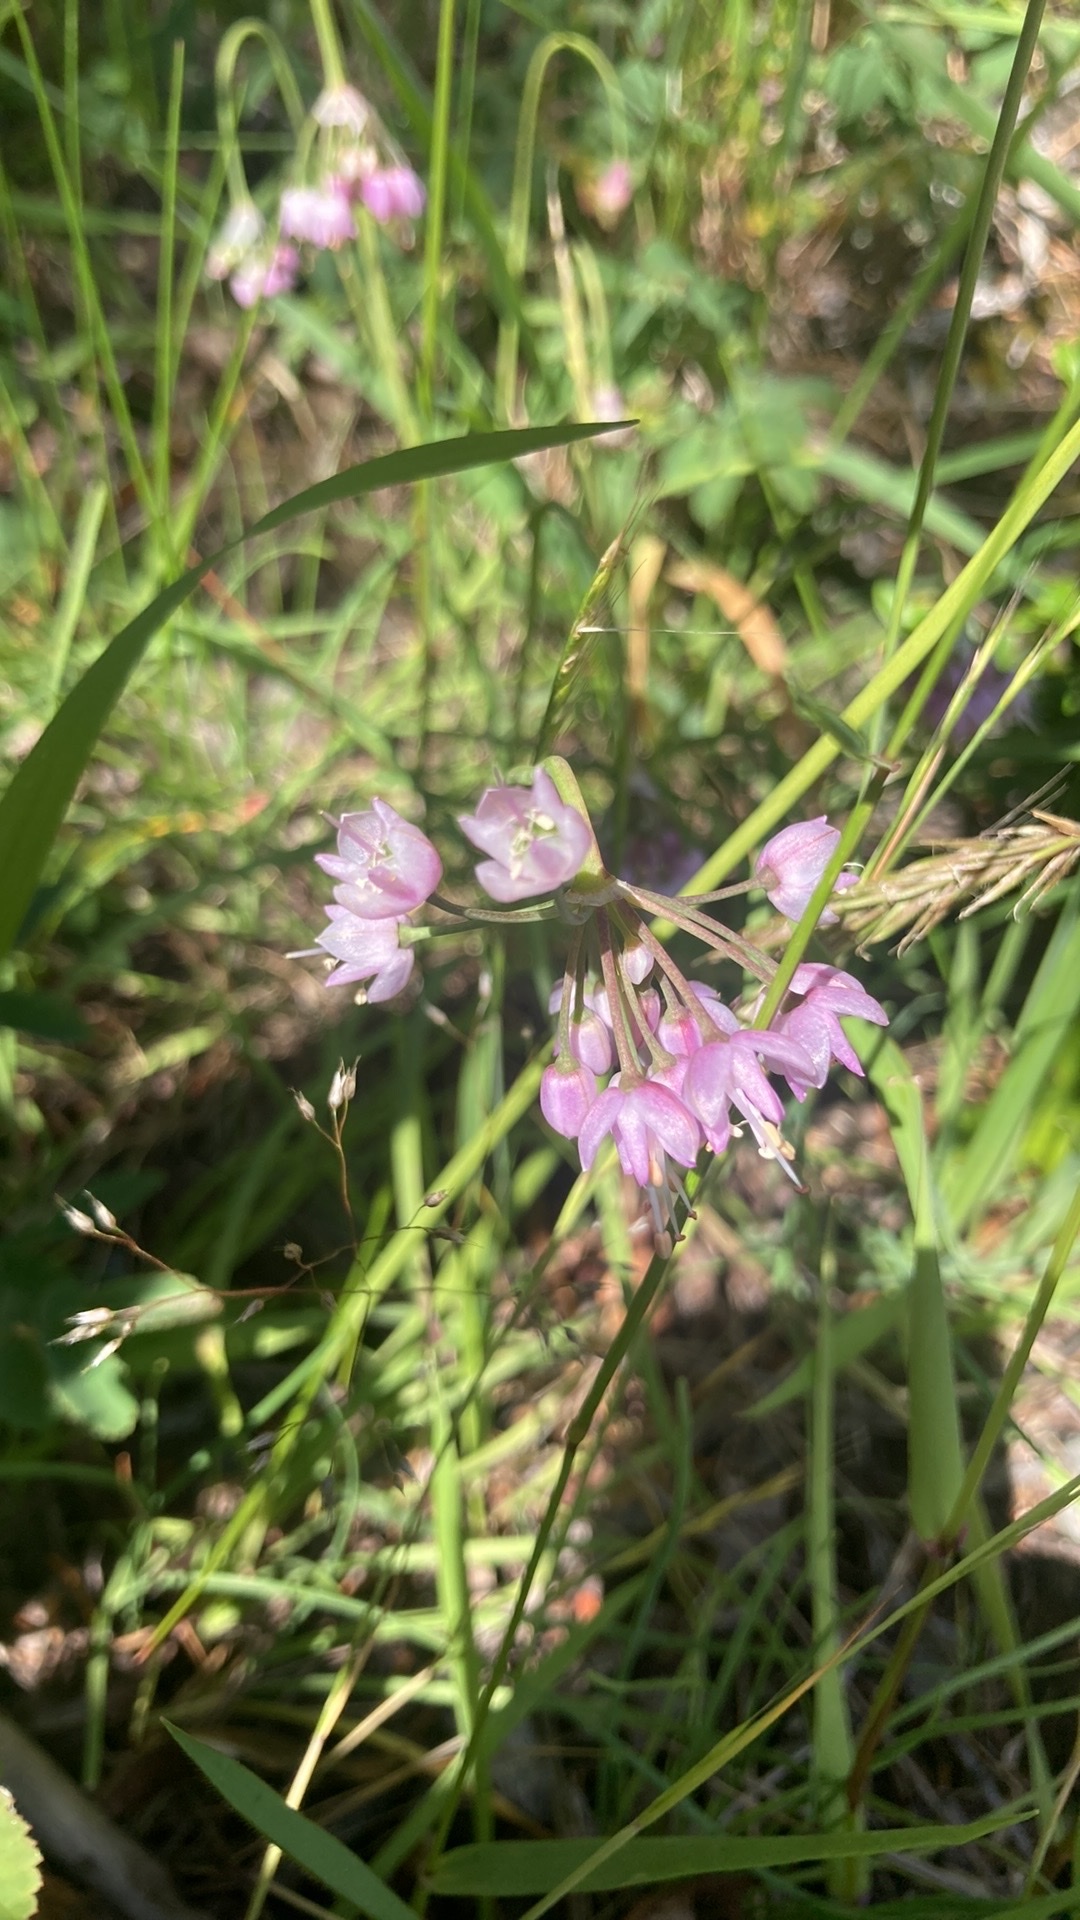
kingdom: Plantae
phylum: Tracheophyta
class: Liliopsida
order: Asparagales
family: Amaryllidaceae
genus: Allium
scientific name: Allium cernuum
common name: Nodding onion
